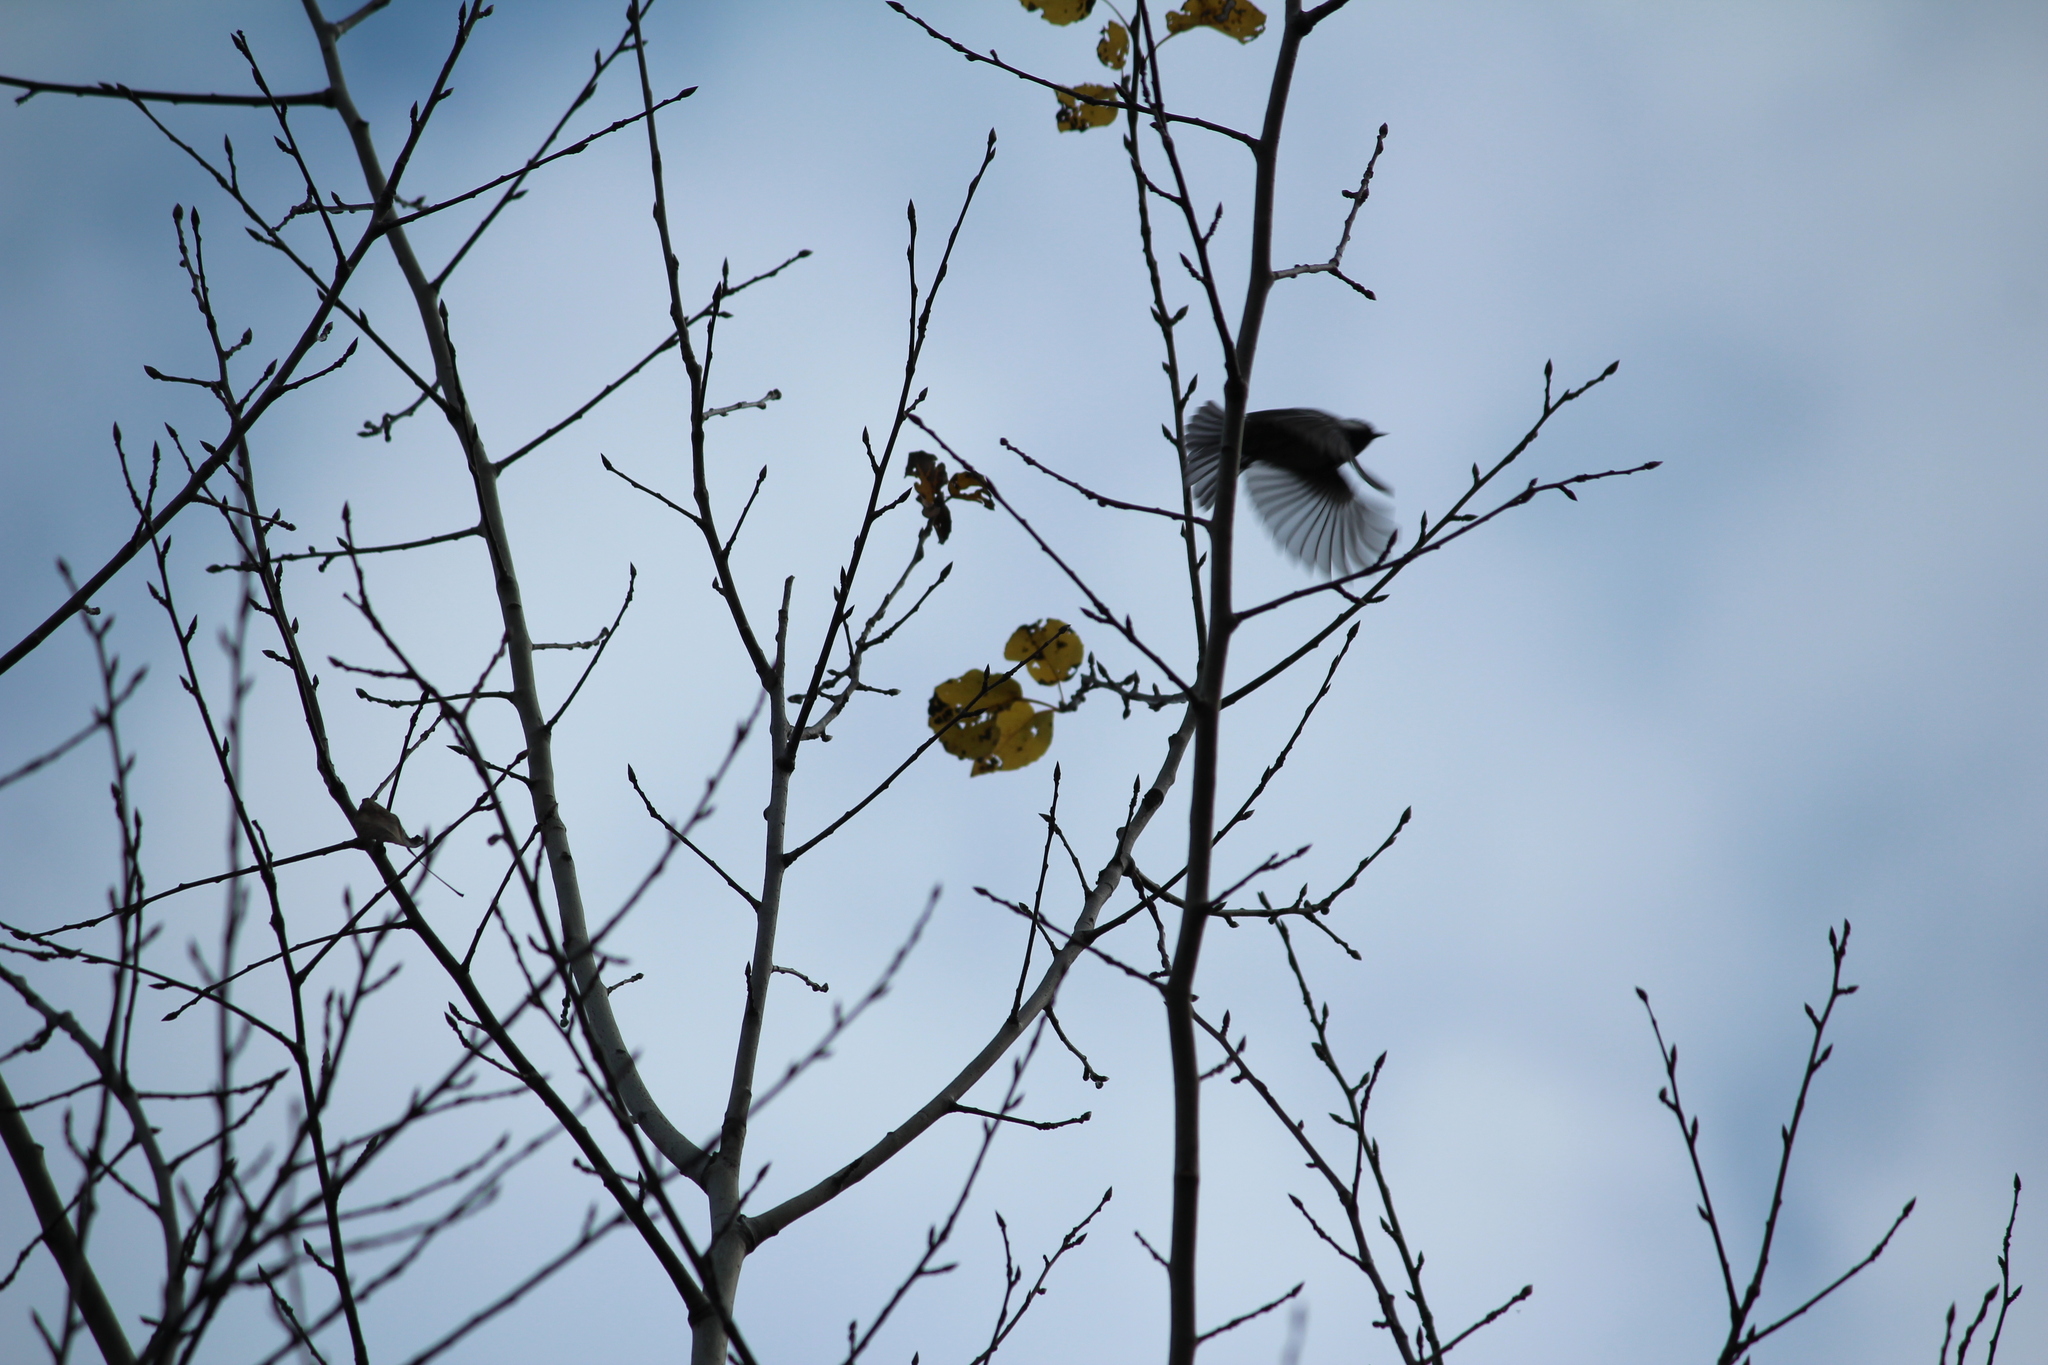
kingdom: Animalia
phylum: Chordata
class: Aves
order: Passeriformes
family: Paridae
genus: Periparus
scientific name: Periparus ater
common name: Coal tit
